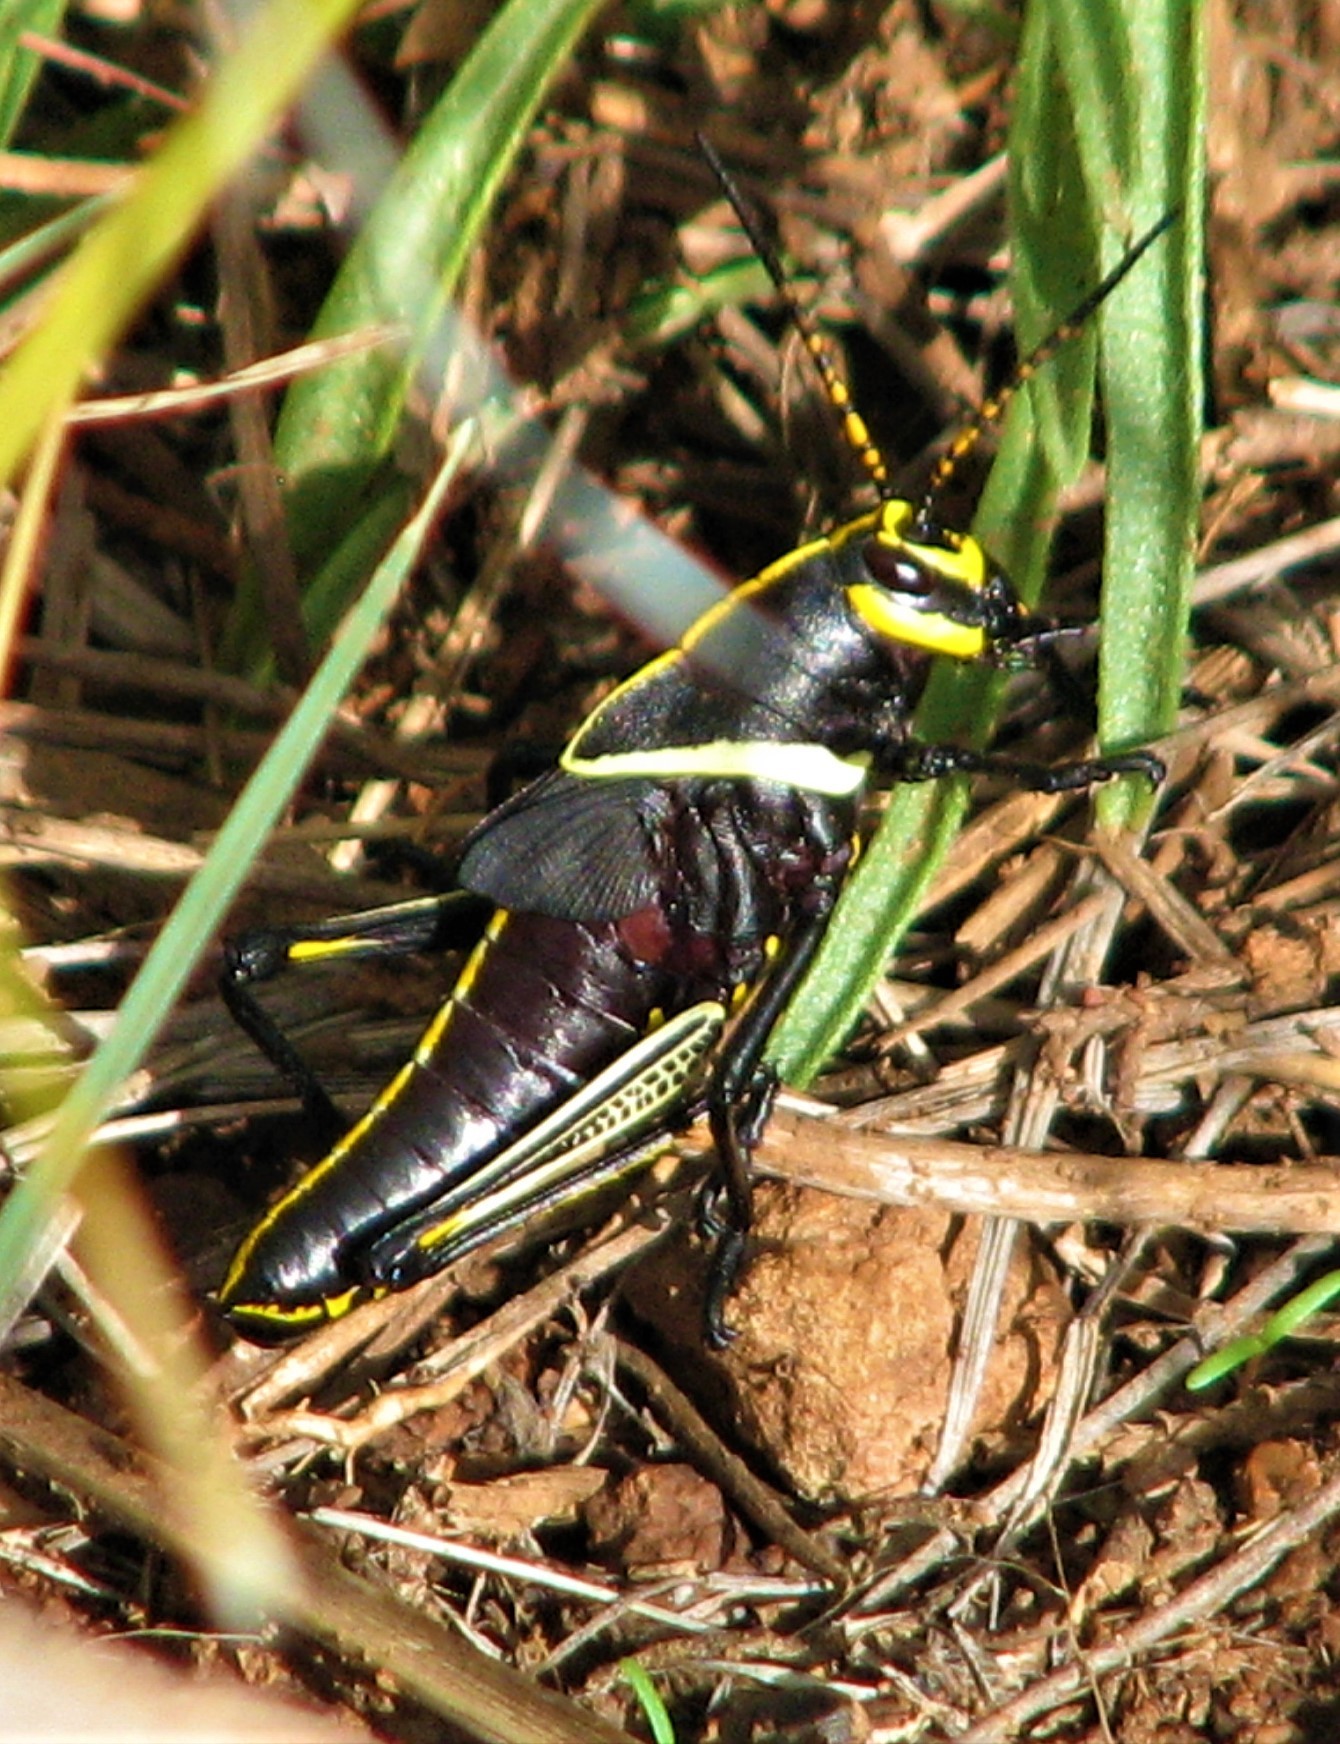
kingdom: Animalia
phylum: Arthropoda
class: Insecta
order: Orthoptera
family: Romaleidae
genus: Romalea
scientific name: Romalea
